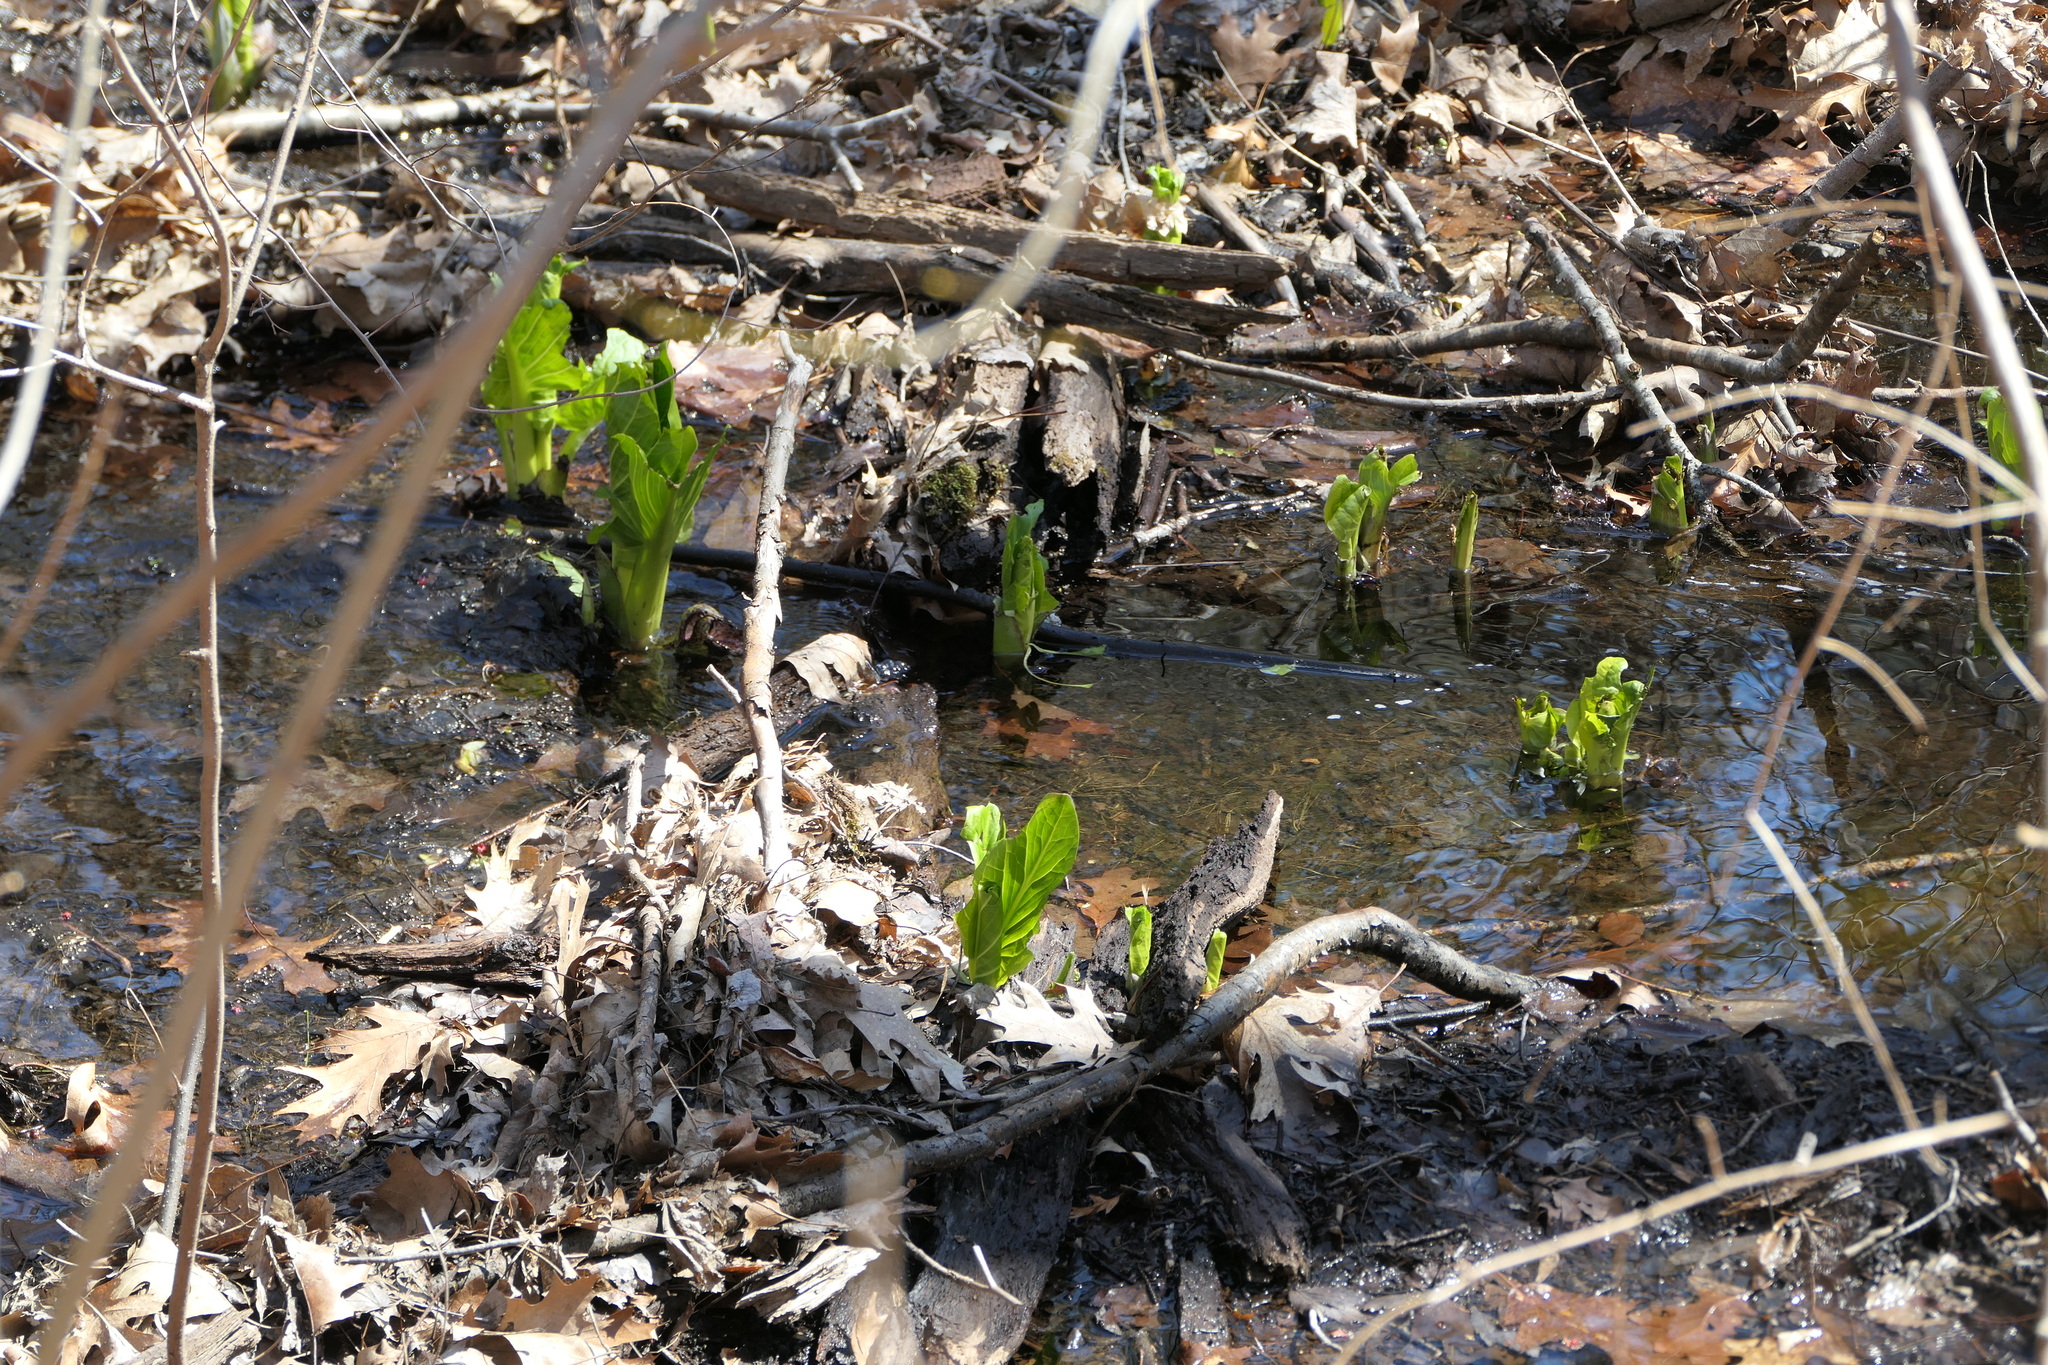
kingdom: Plantae
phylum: Tracheophyta
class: Liliopsida
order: Alismatales
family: Araceae
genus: Symplocarpus
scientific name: Symplocarpus foetidus
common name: Eastern skunk cabbage
